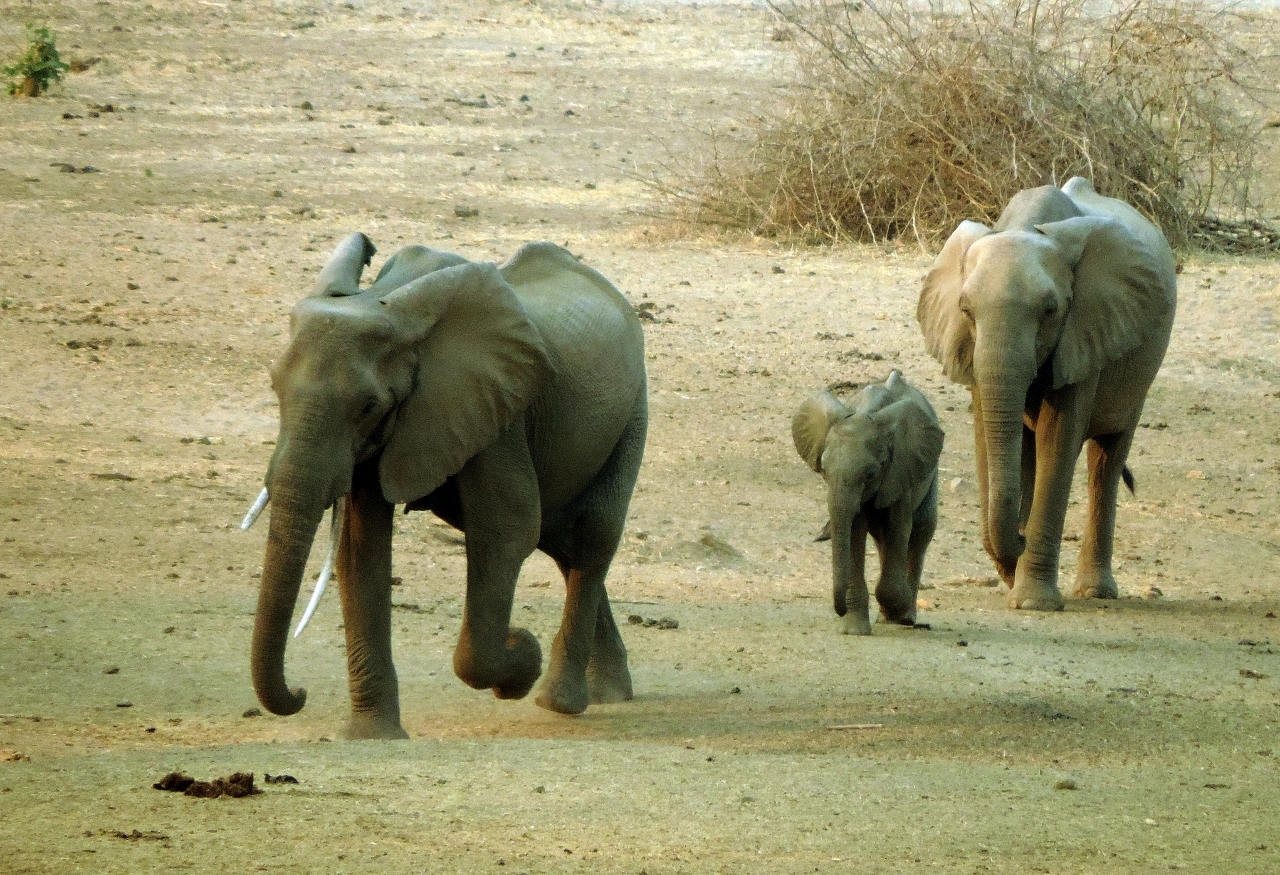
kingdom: Animalia
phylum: Chordata
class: Mammalia
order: Proboscidea
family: Elephantidae
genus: Loxodonta
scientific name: Loxodonta africana
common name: African elephant
